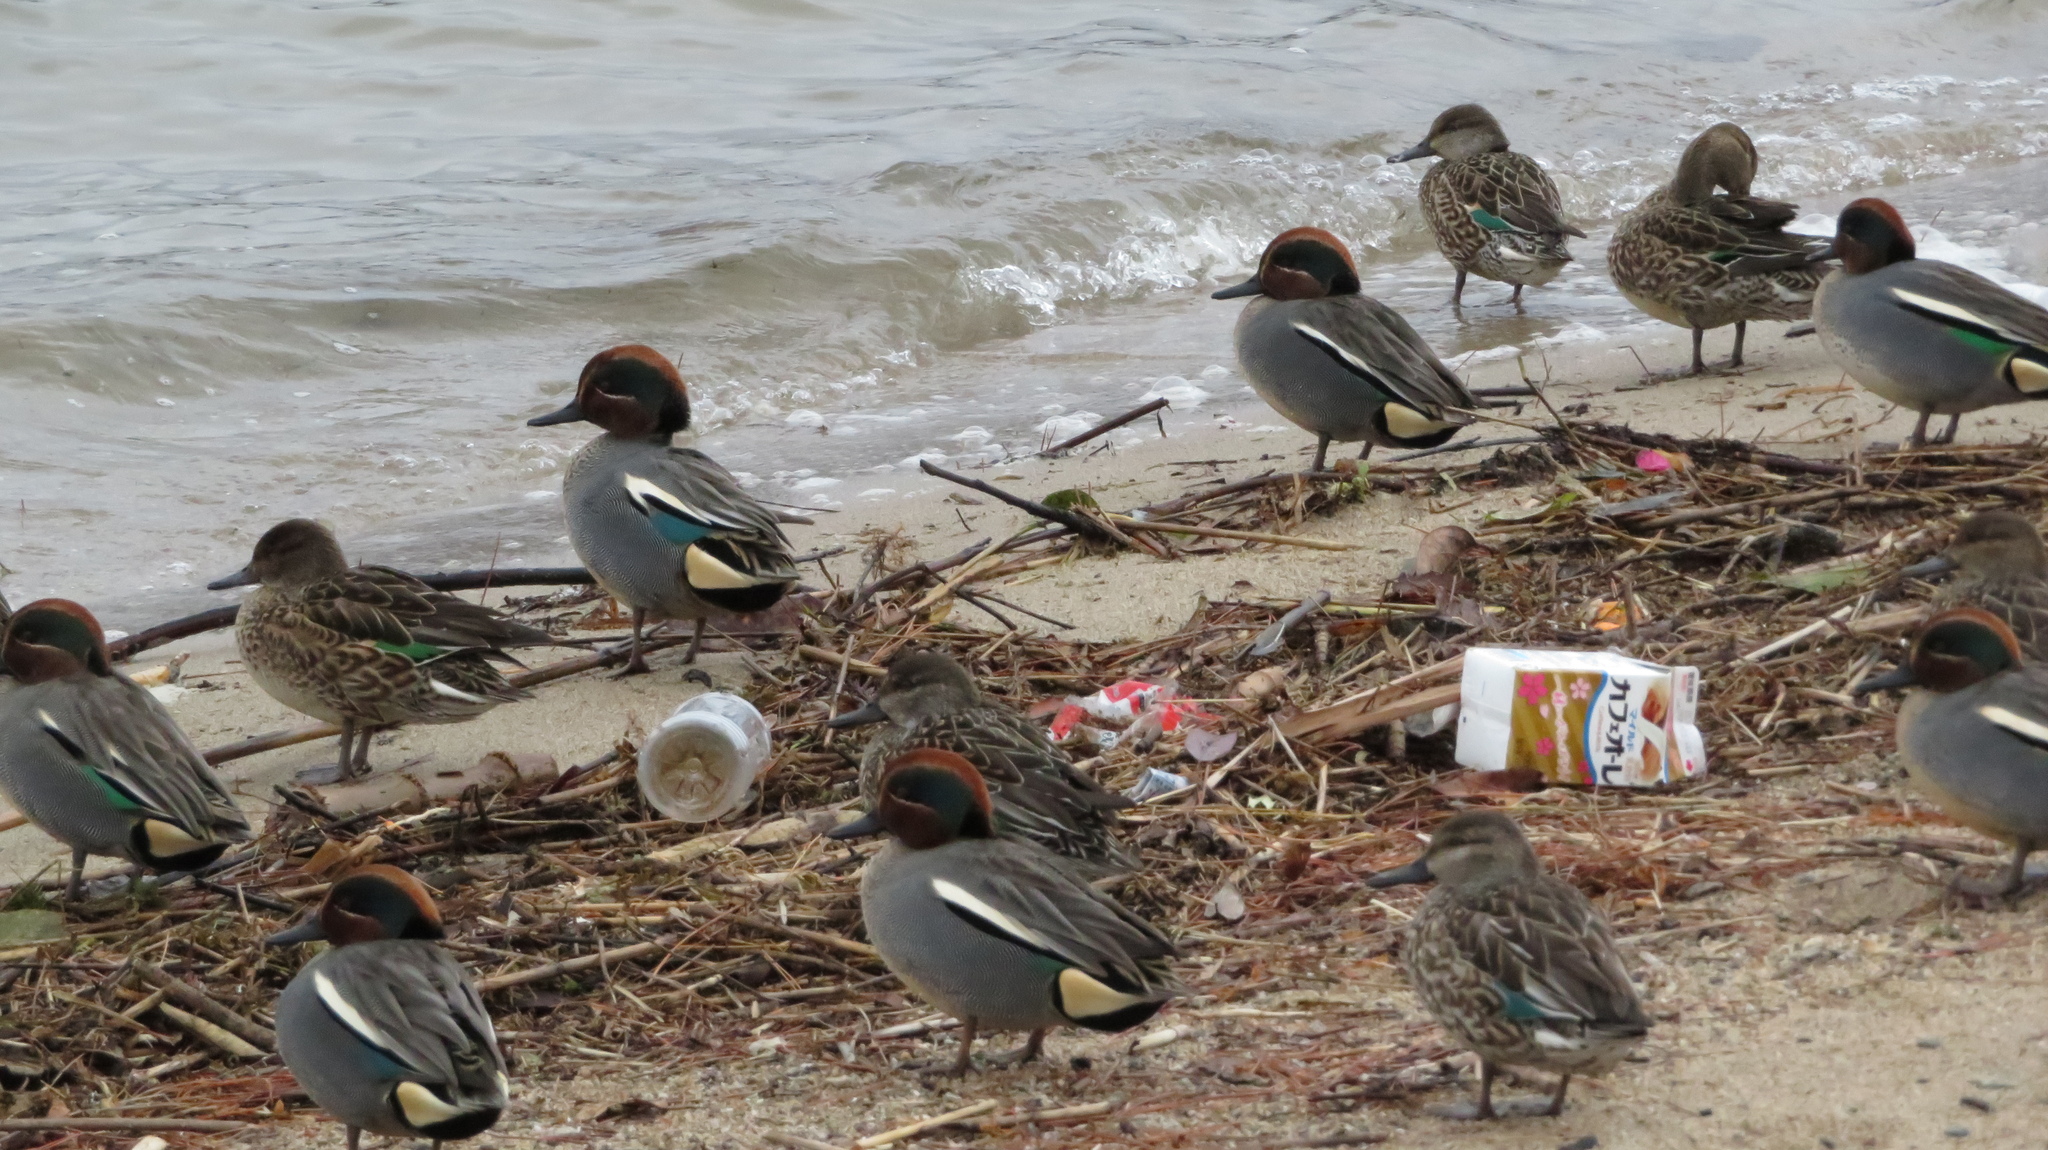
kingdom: Animalia
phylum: Chordata
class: Aves
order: Anseriformes
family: Anatidae
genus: Anas
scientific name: Anas crecca
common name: Eurasian teal
